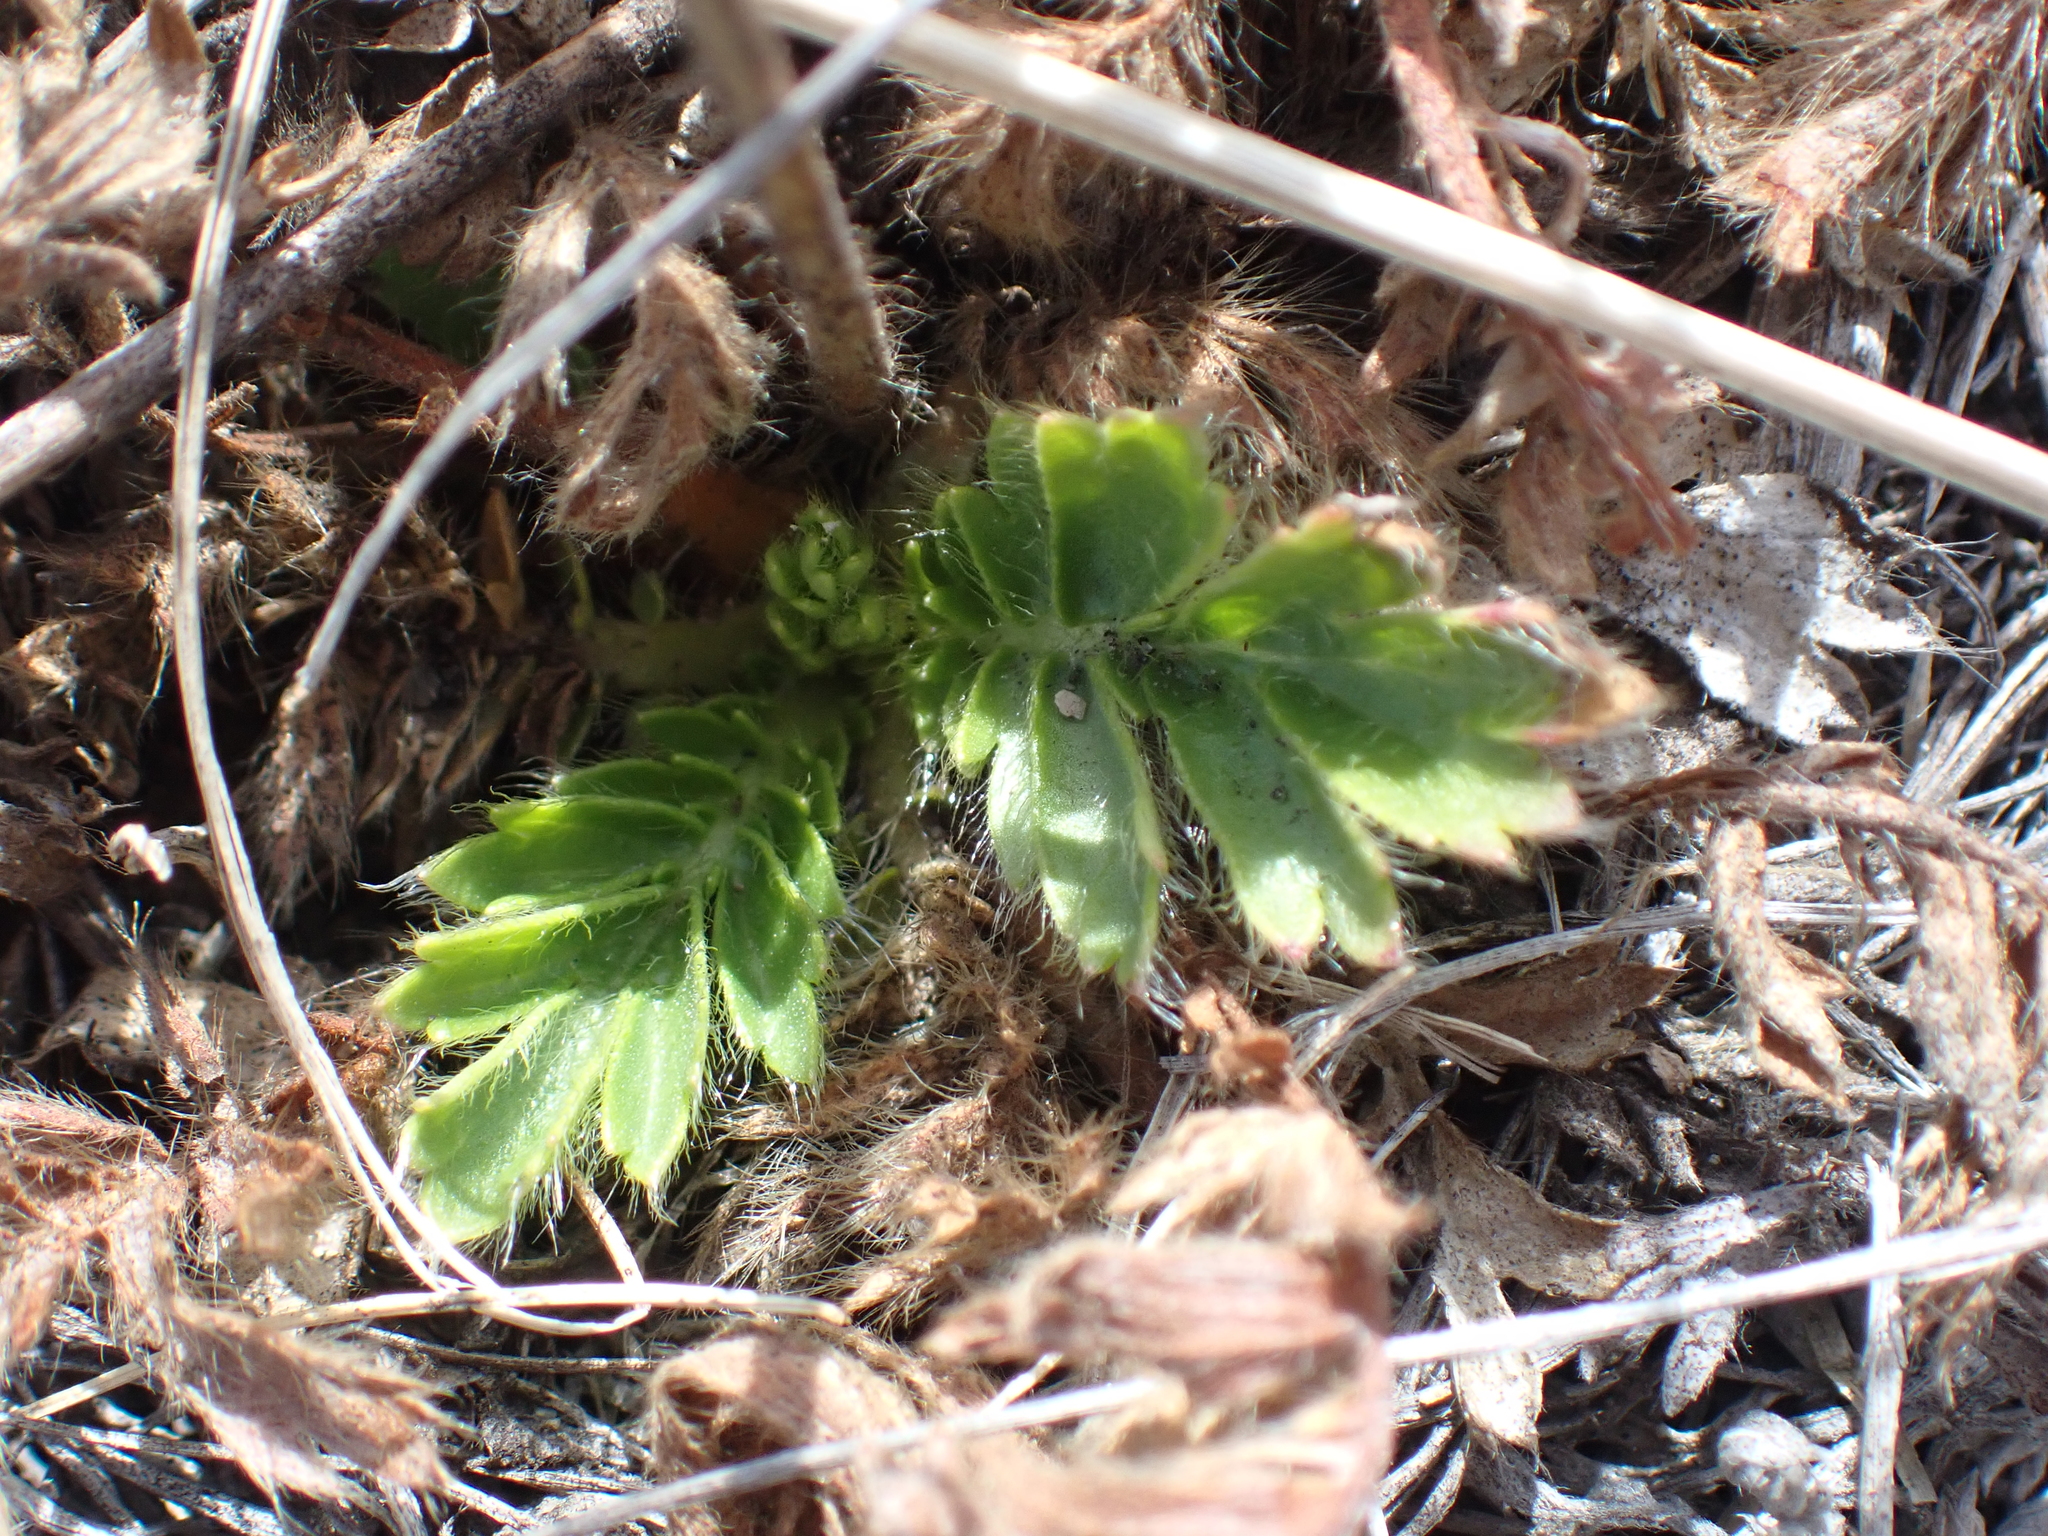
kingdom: Plantae
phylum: Tracheophyta
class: Magnoliopsida
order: Rosales
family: Rosaceae
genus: Geum
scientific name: Geum triflorum
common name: Old man's whiskers
